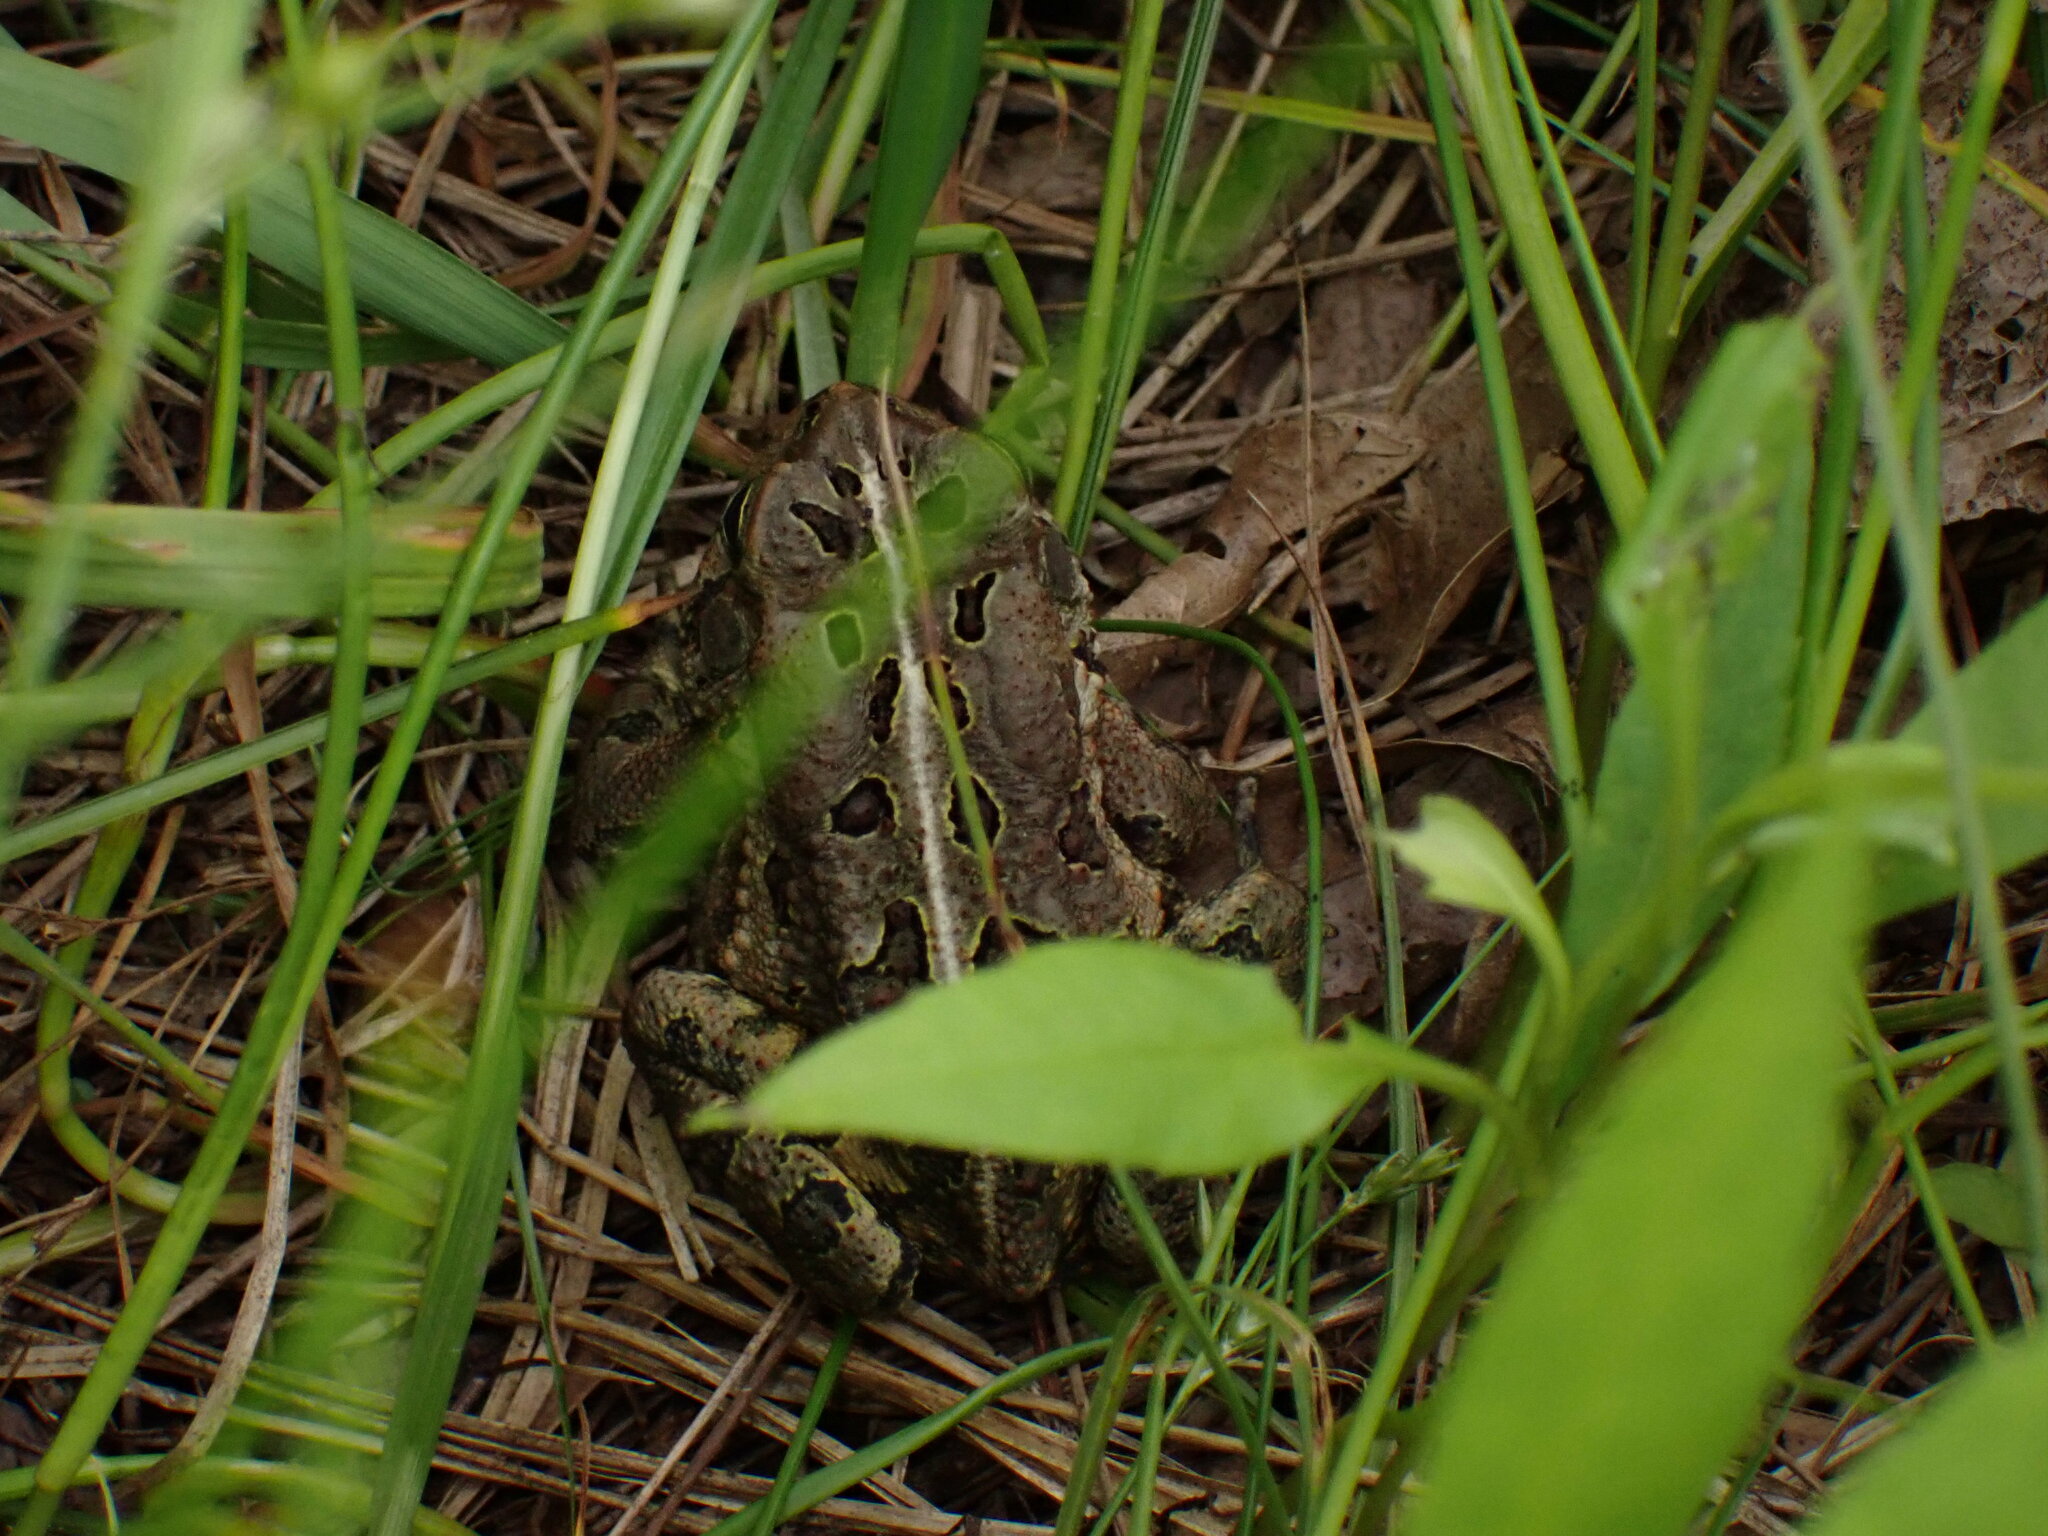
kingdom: Animalia
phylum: Chordata
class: Amphibia
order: Anura
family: Bufonidae
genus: Anaxyrus
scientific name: Anaxyrus fowleri
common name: Fowler's toad
